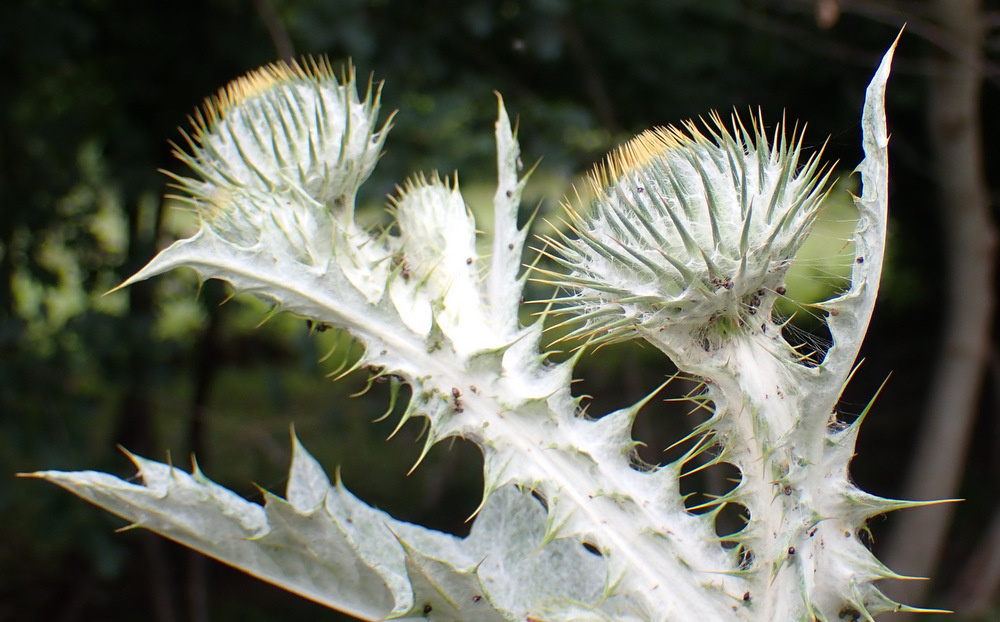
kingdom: Plantae
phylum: Tracheophyta
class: Magnoliopsida
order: Asterales
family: Asteraceae
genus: Onopordum
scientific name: Onopordum beckianum
